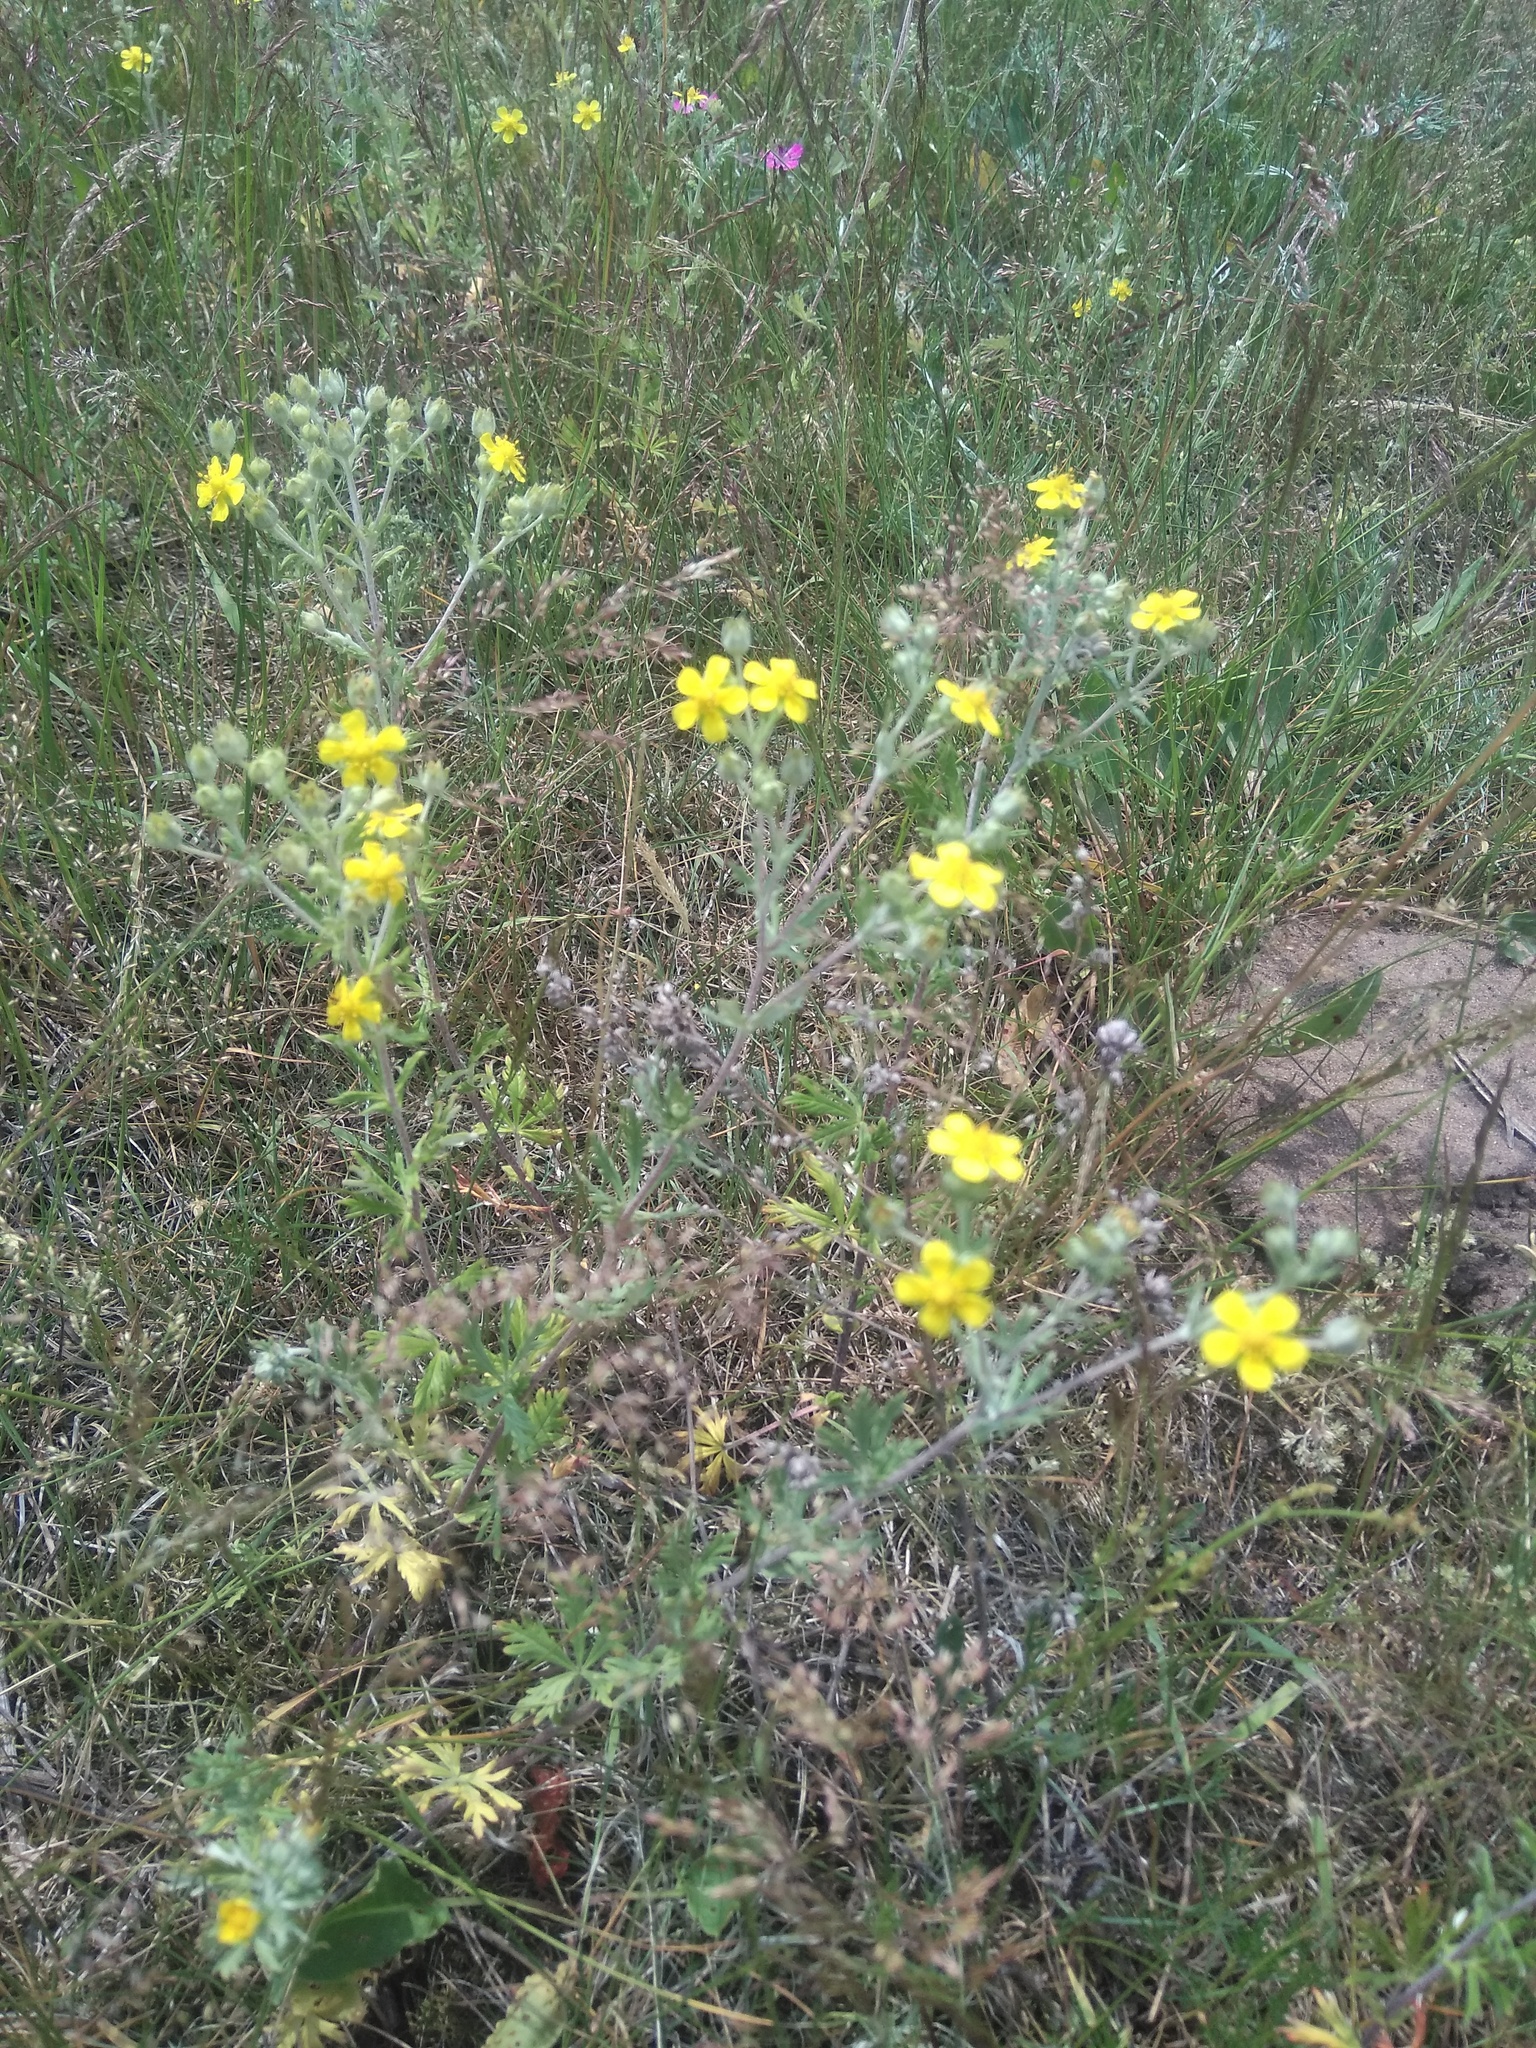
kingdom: Plantae
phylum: Tracheophyta
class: Magnoliopsida
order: Rosales
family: Rosaceae
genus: Potentilla
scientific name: Potentilla argentea
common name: Hoary cinquefoil
